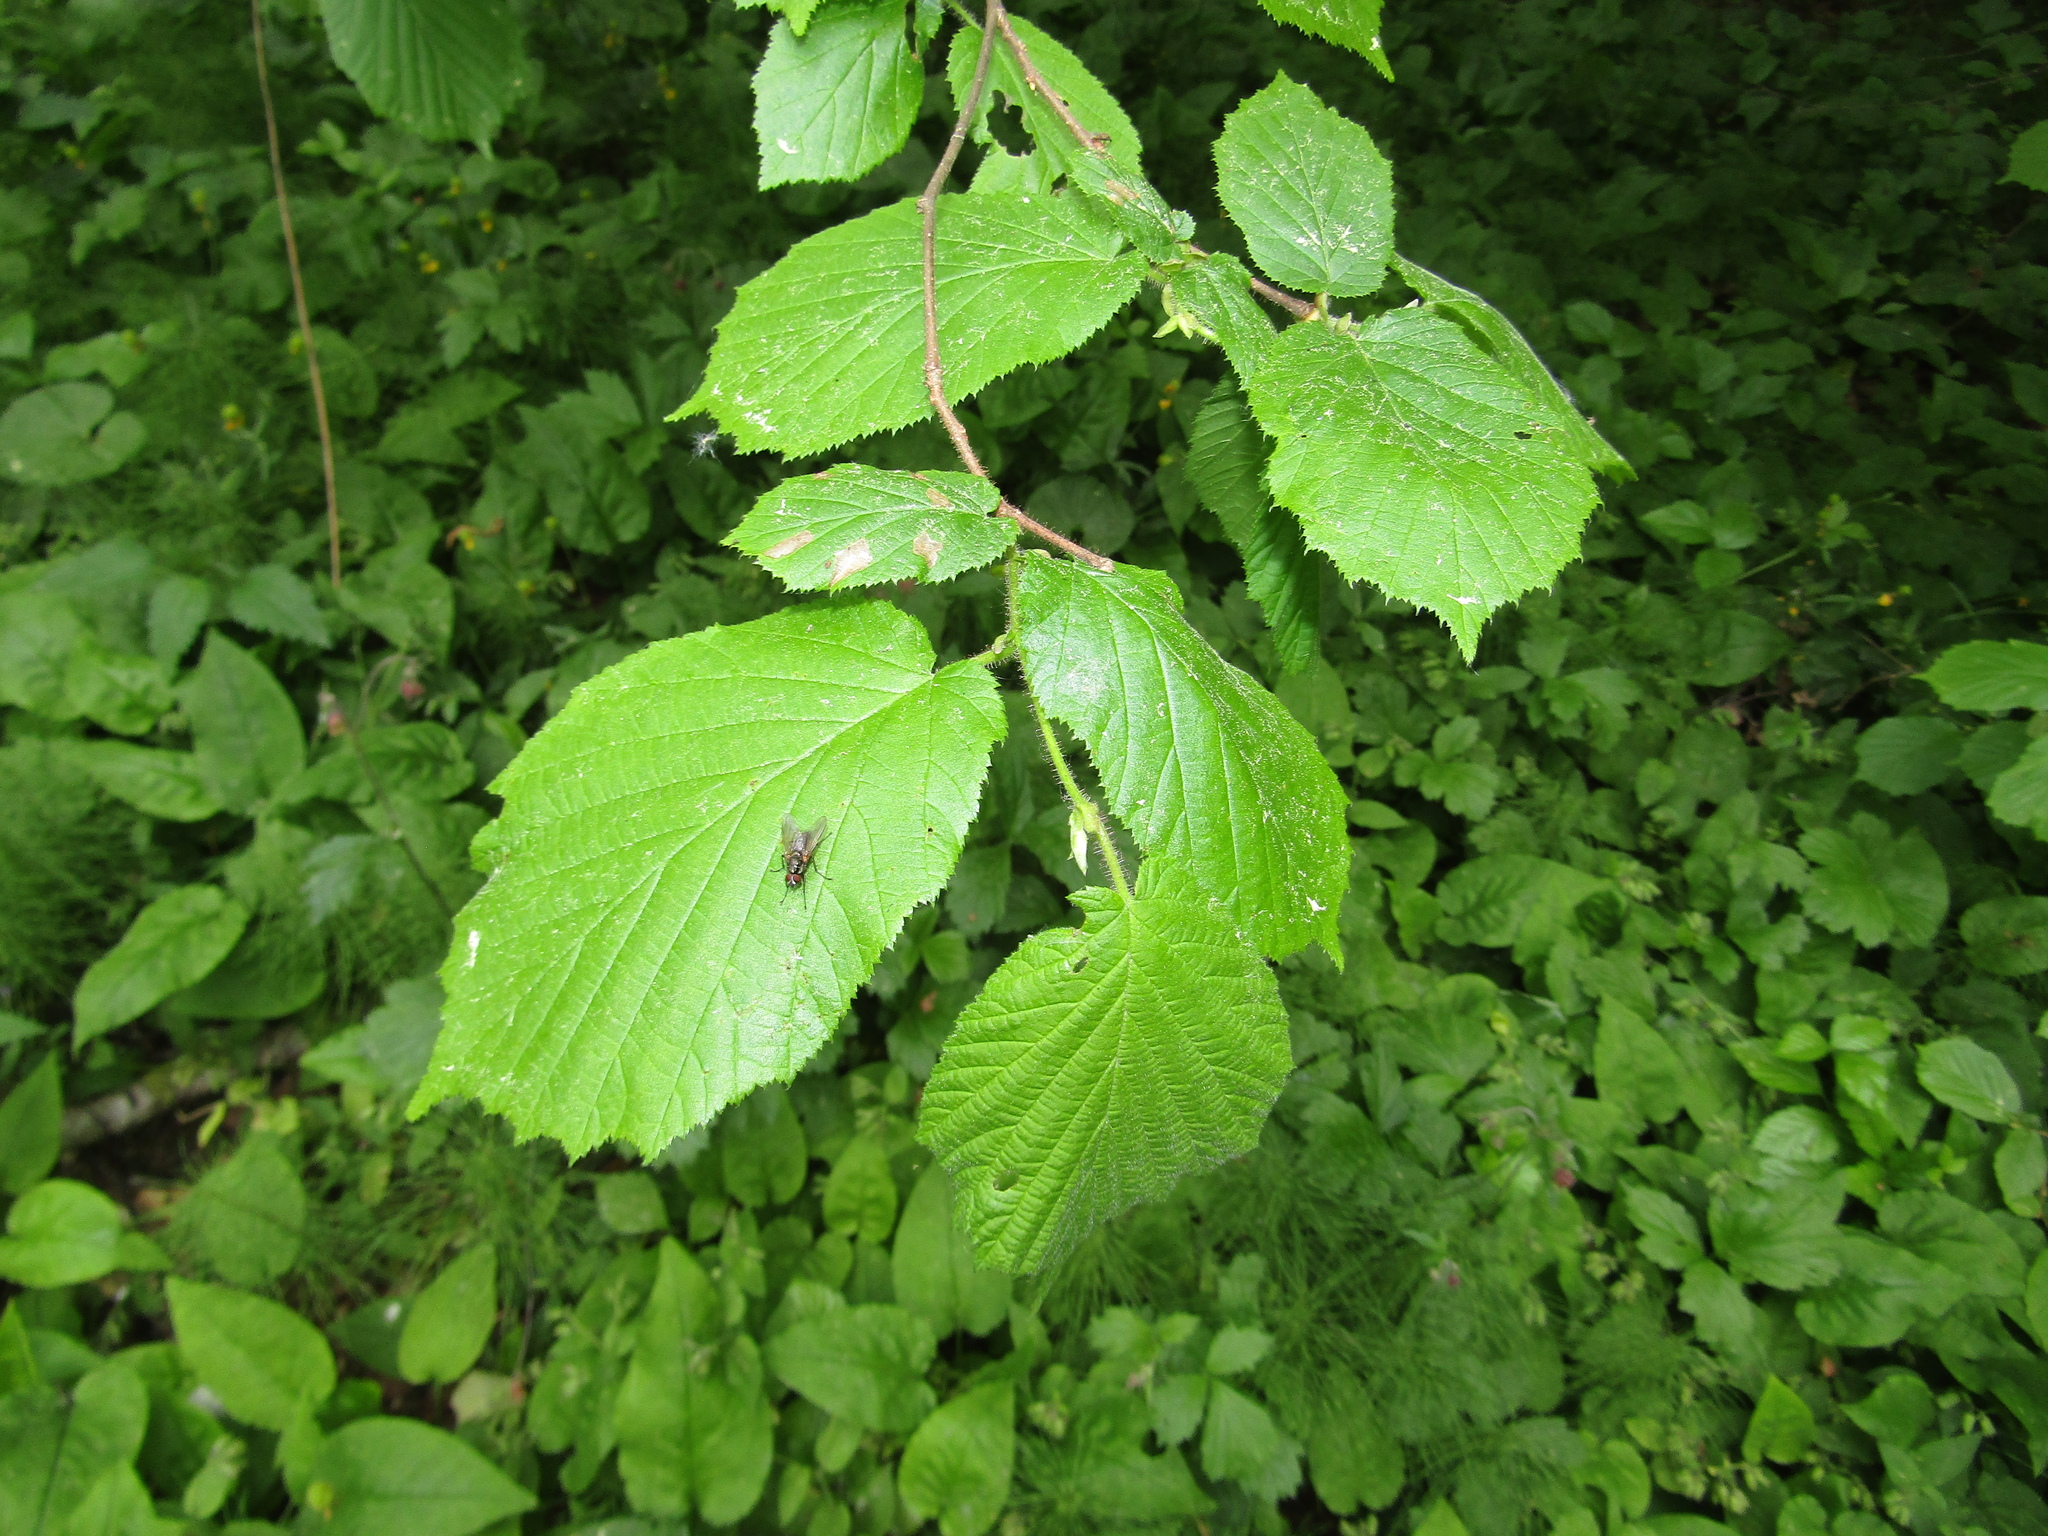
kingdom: Plantae
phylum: Tracheophyta
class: Magnoliopsida
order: Fagales
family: Betulaceae
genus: Corylus
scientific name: Corylus avellana
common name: European hazel
